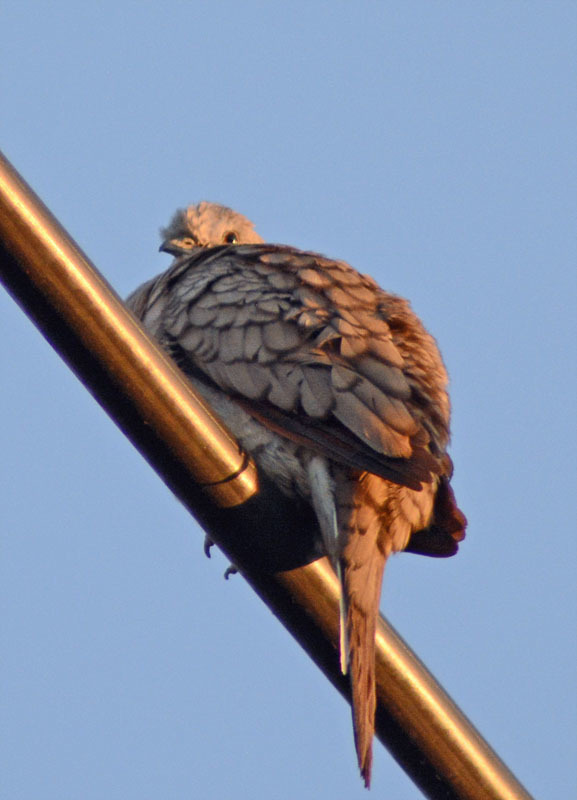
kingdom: Animalia
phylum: Chordata
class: Aves
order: Columbiformes
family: Columbidae
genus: Columbina
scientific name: Columbina inca
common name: Inca dove
